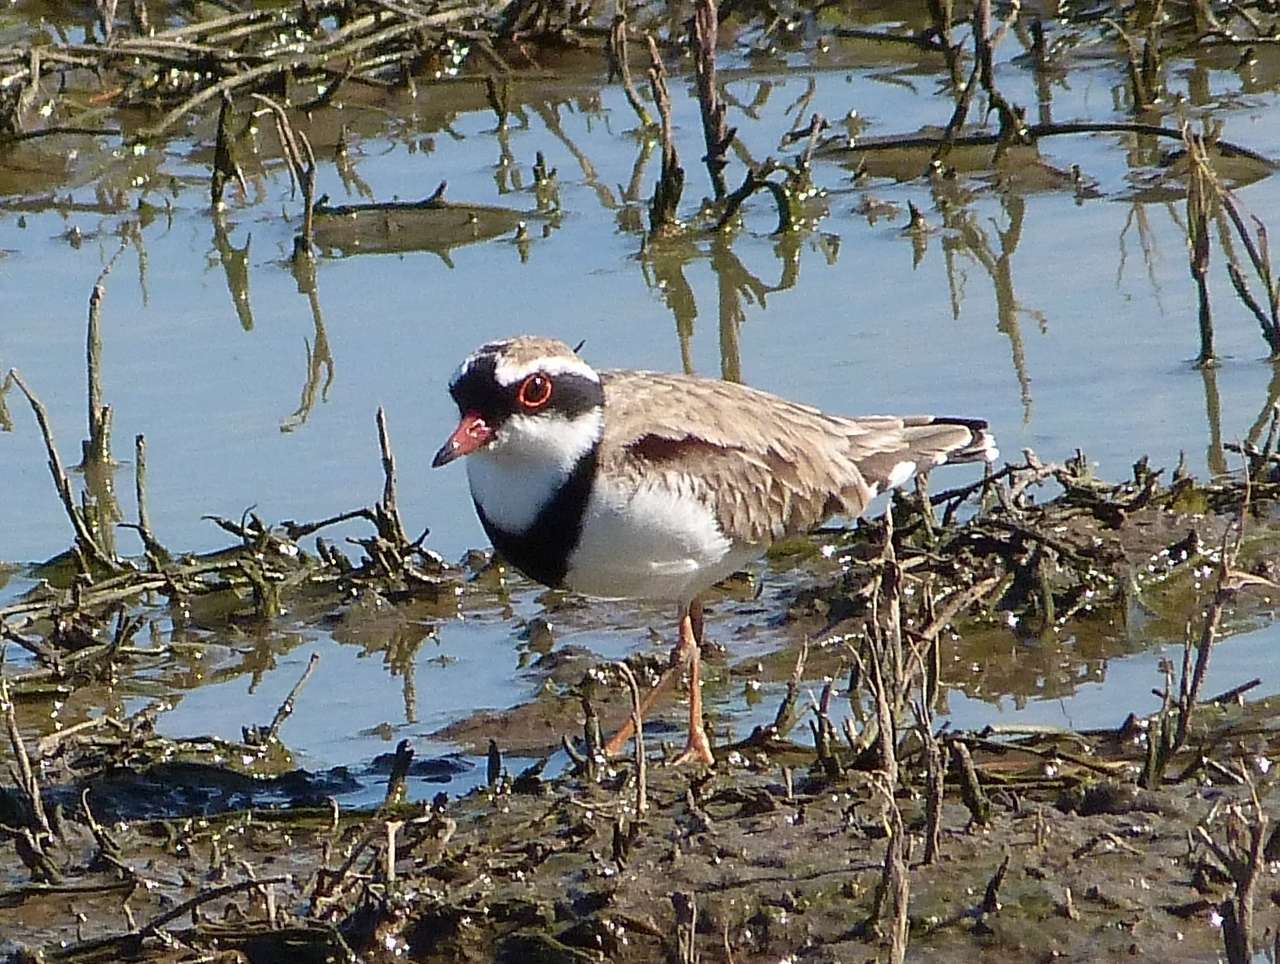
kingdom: Animalia
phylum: Chordata
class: Aves
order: Charadriiformes
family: Charadriidae
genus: Elseyornis
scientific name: Elseyornis melanops
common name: Black-fronted dotterel
